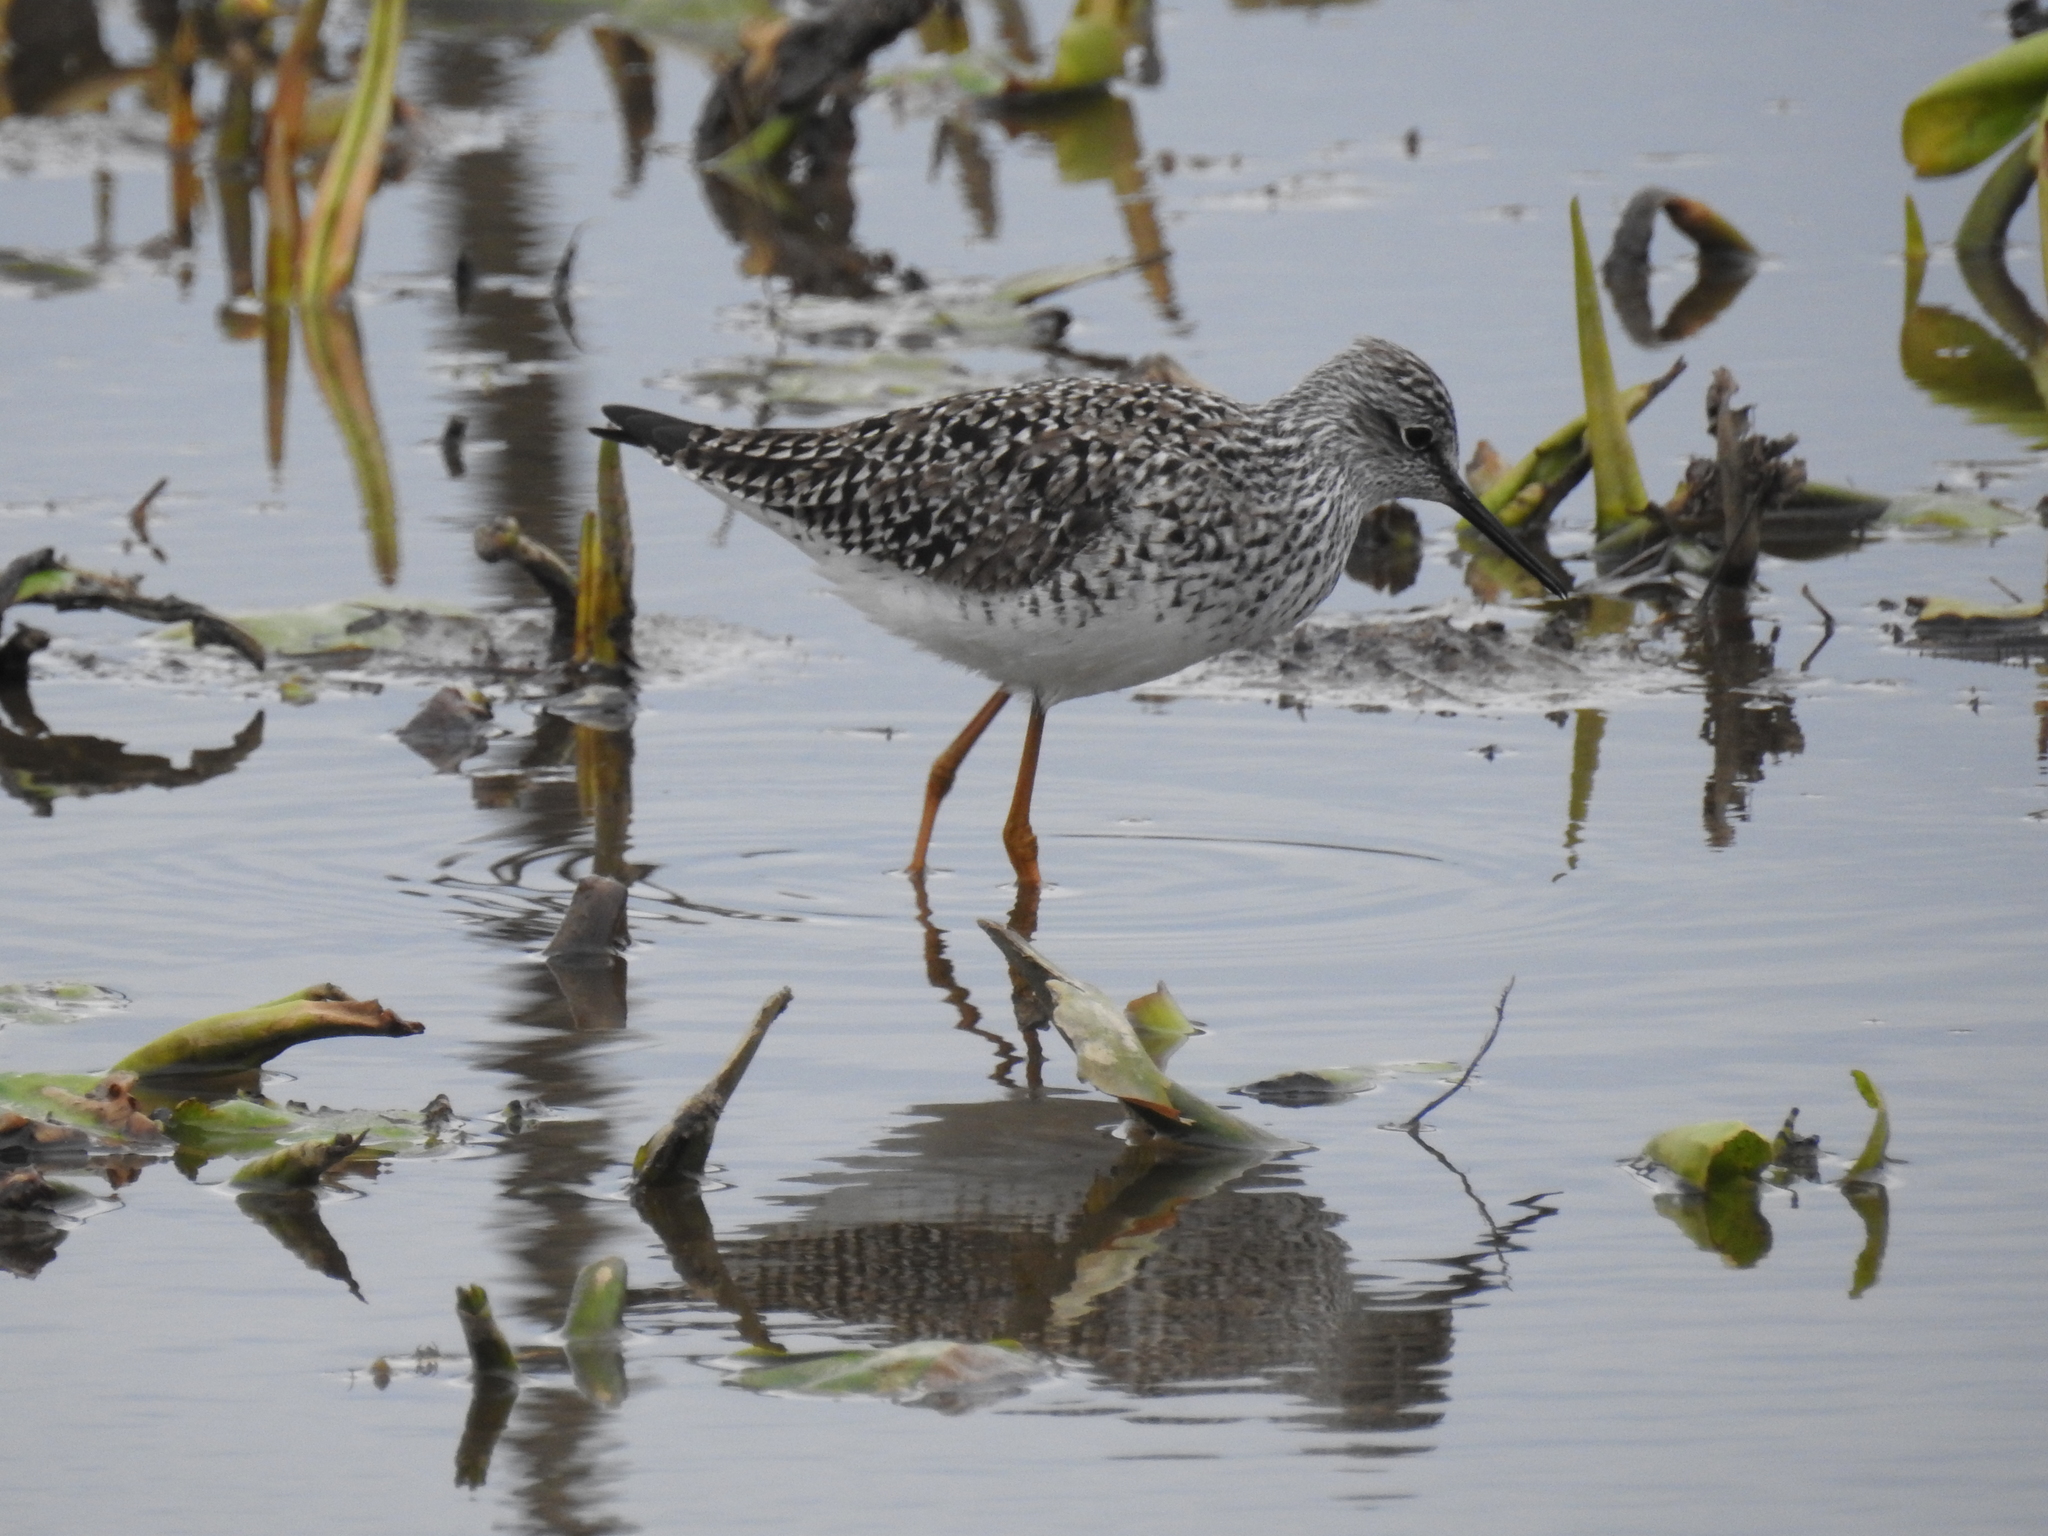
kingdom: Animalia
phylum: Chordata
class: Aves
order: Charadriiformes
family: Scolopacidae
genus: Tringa
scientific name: Tringa flavipes
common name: Lesser yellowlegs
